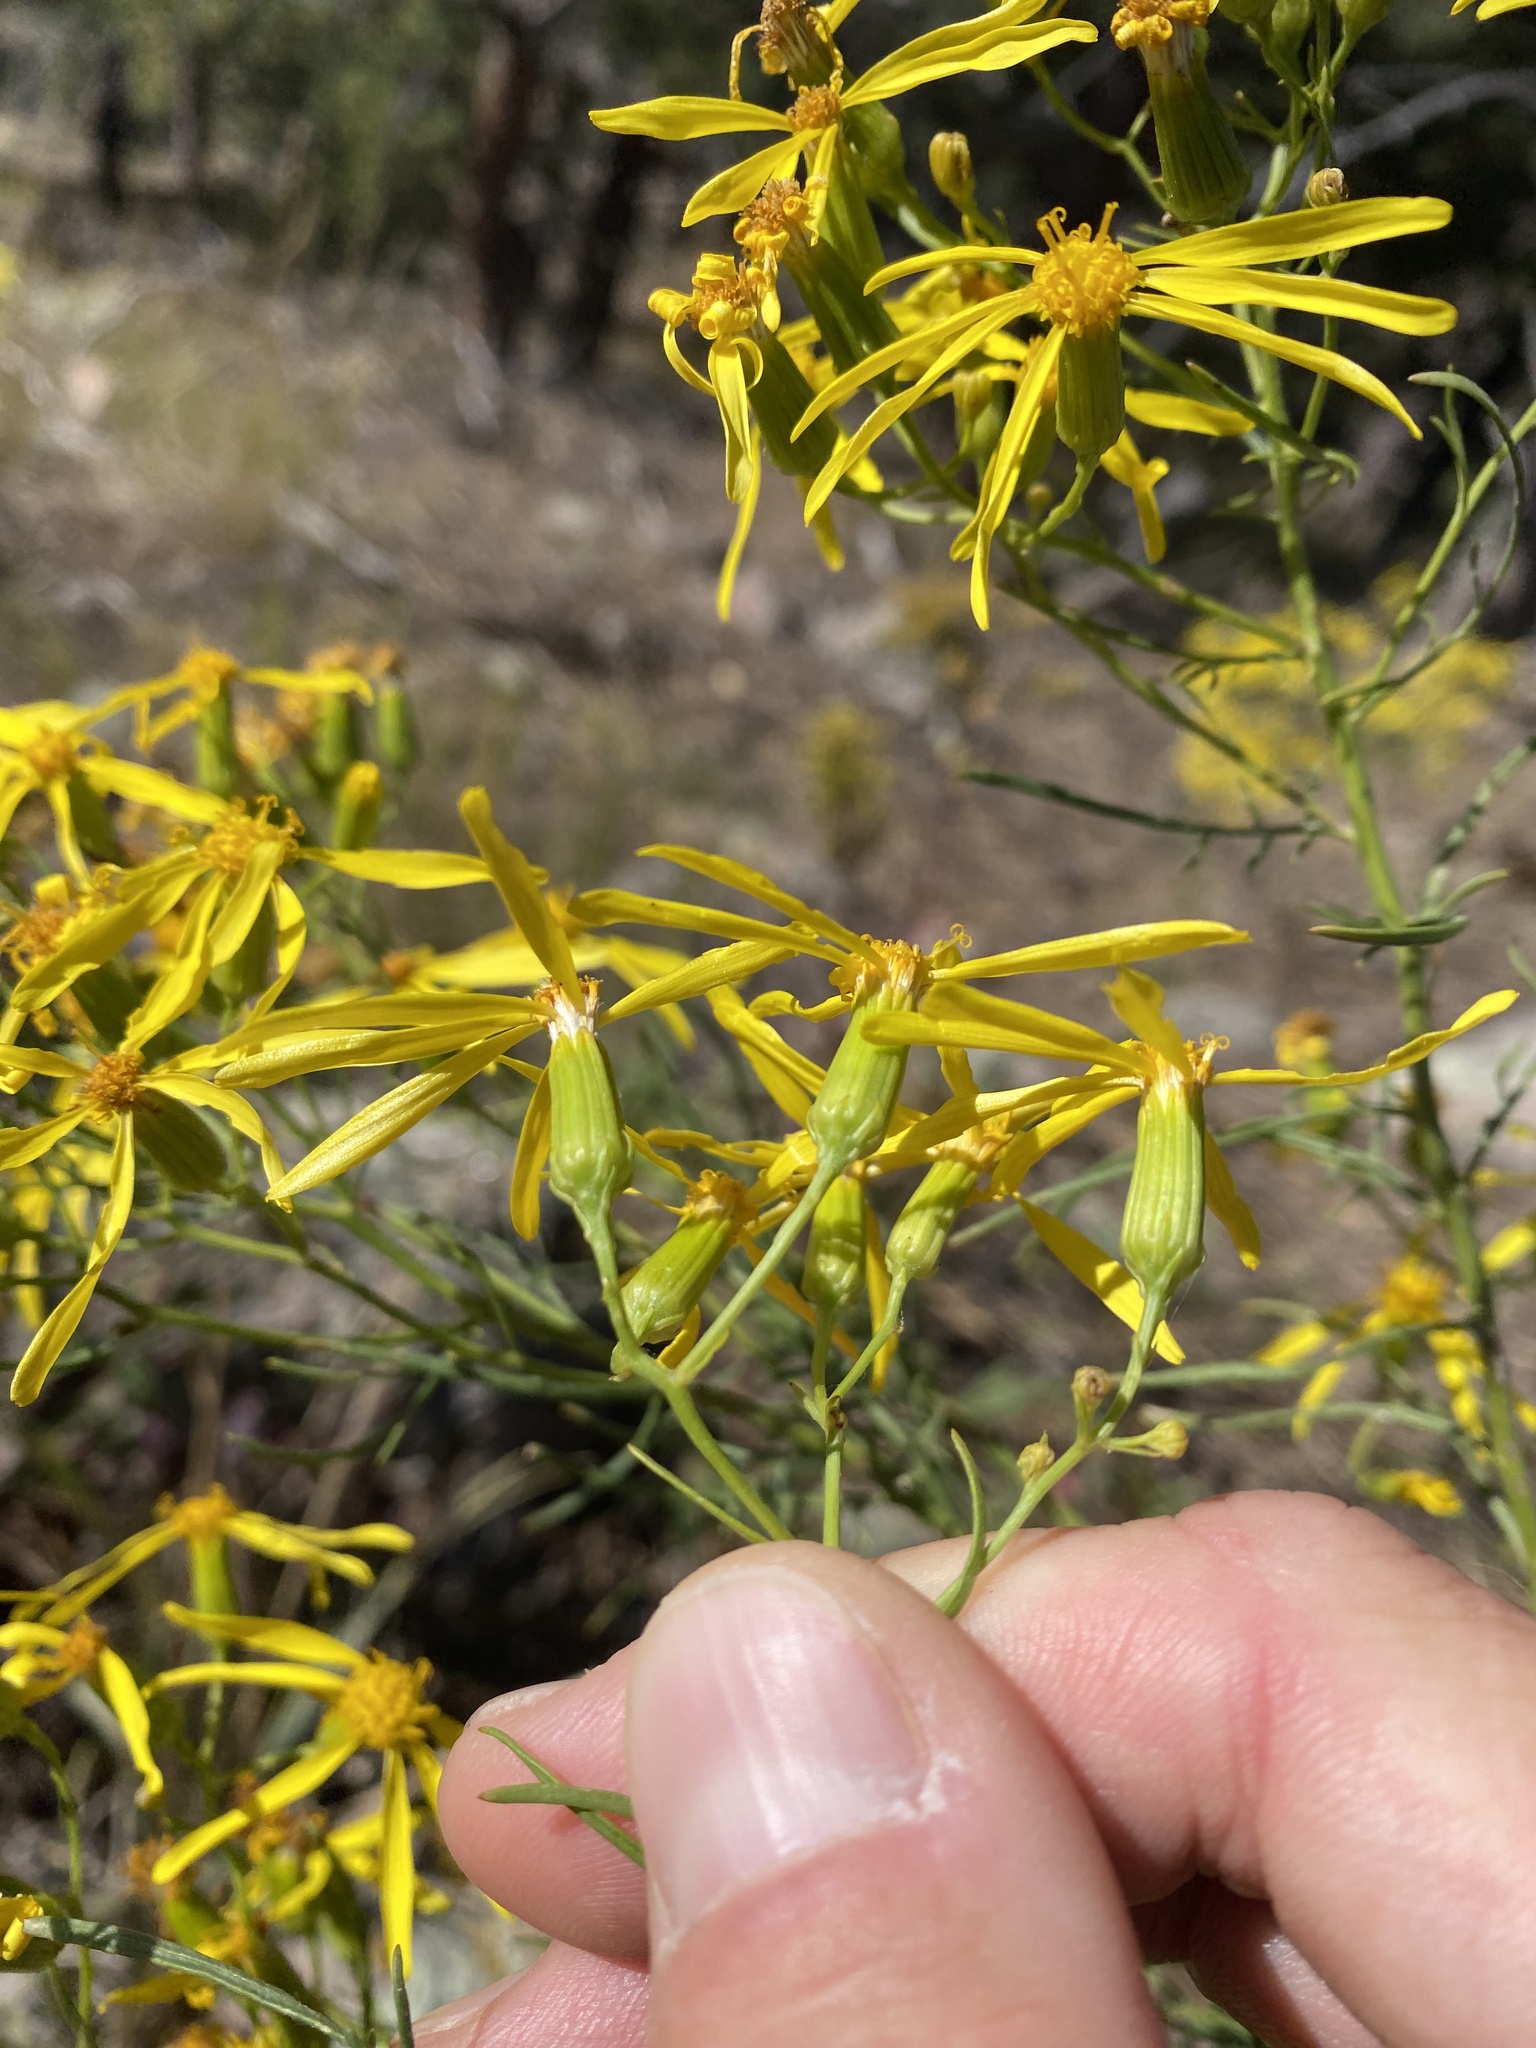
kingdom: Plantae
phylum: Tracheophyta
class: Magnoliopsida
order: Asterales
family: Asteraceae
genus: Senecio
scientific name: Senecio spartioides
